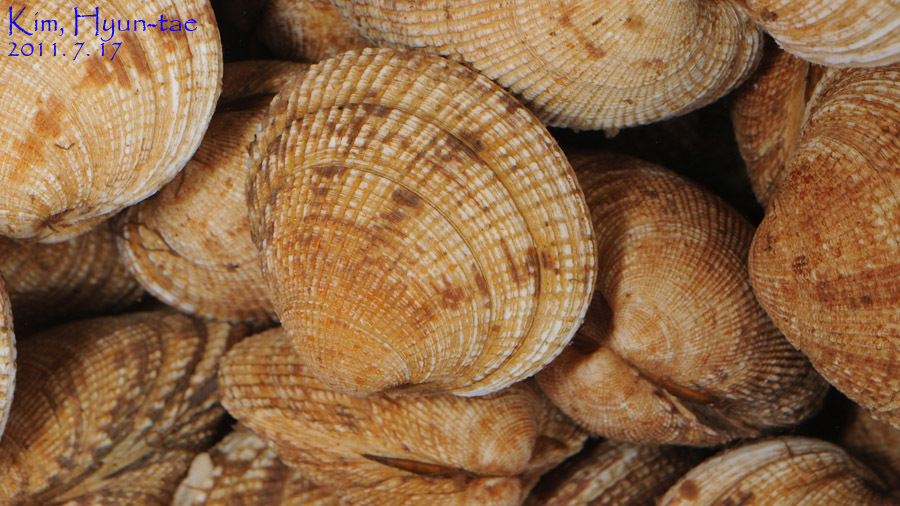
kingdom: Animalia
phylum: Mollusca
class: Bivalvia
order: Venerida
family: Veneridae
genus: Leukoma
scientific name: Leukoma jedoensis
